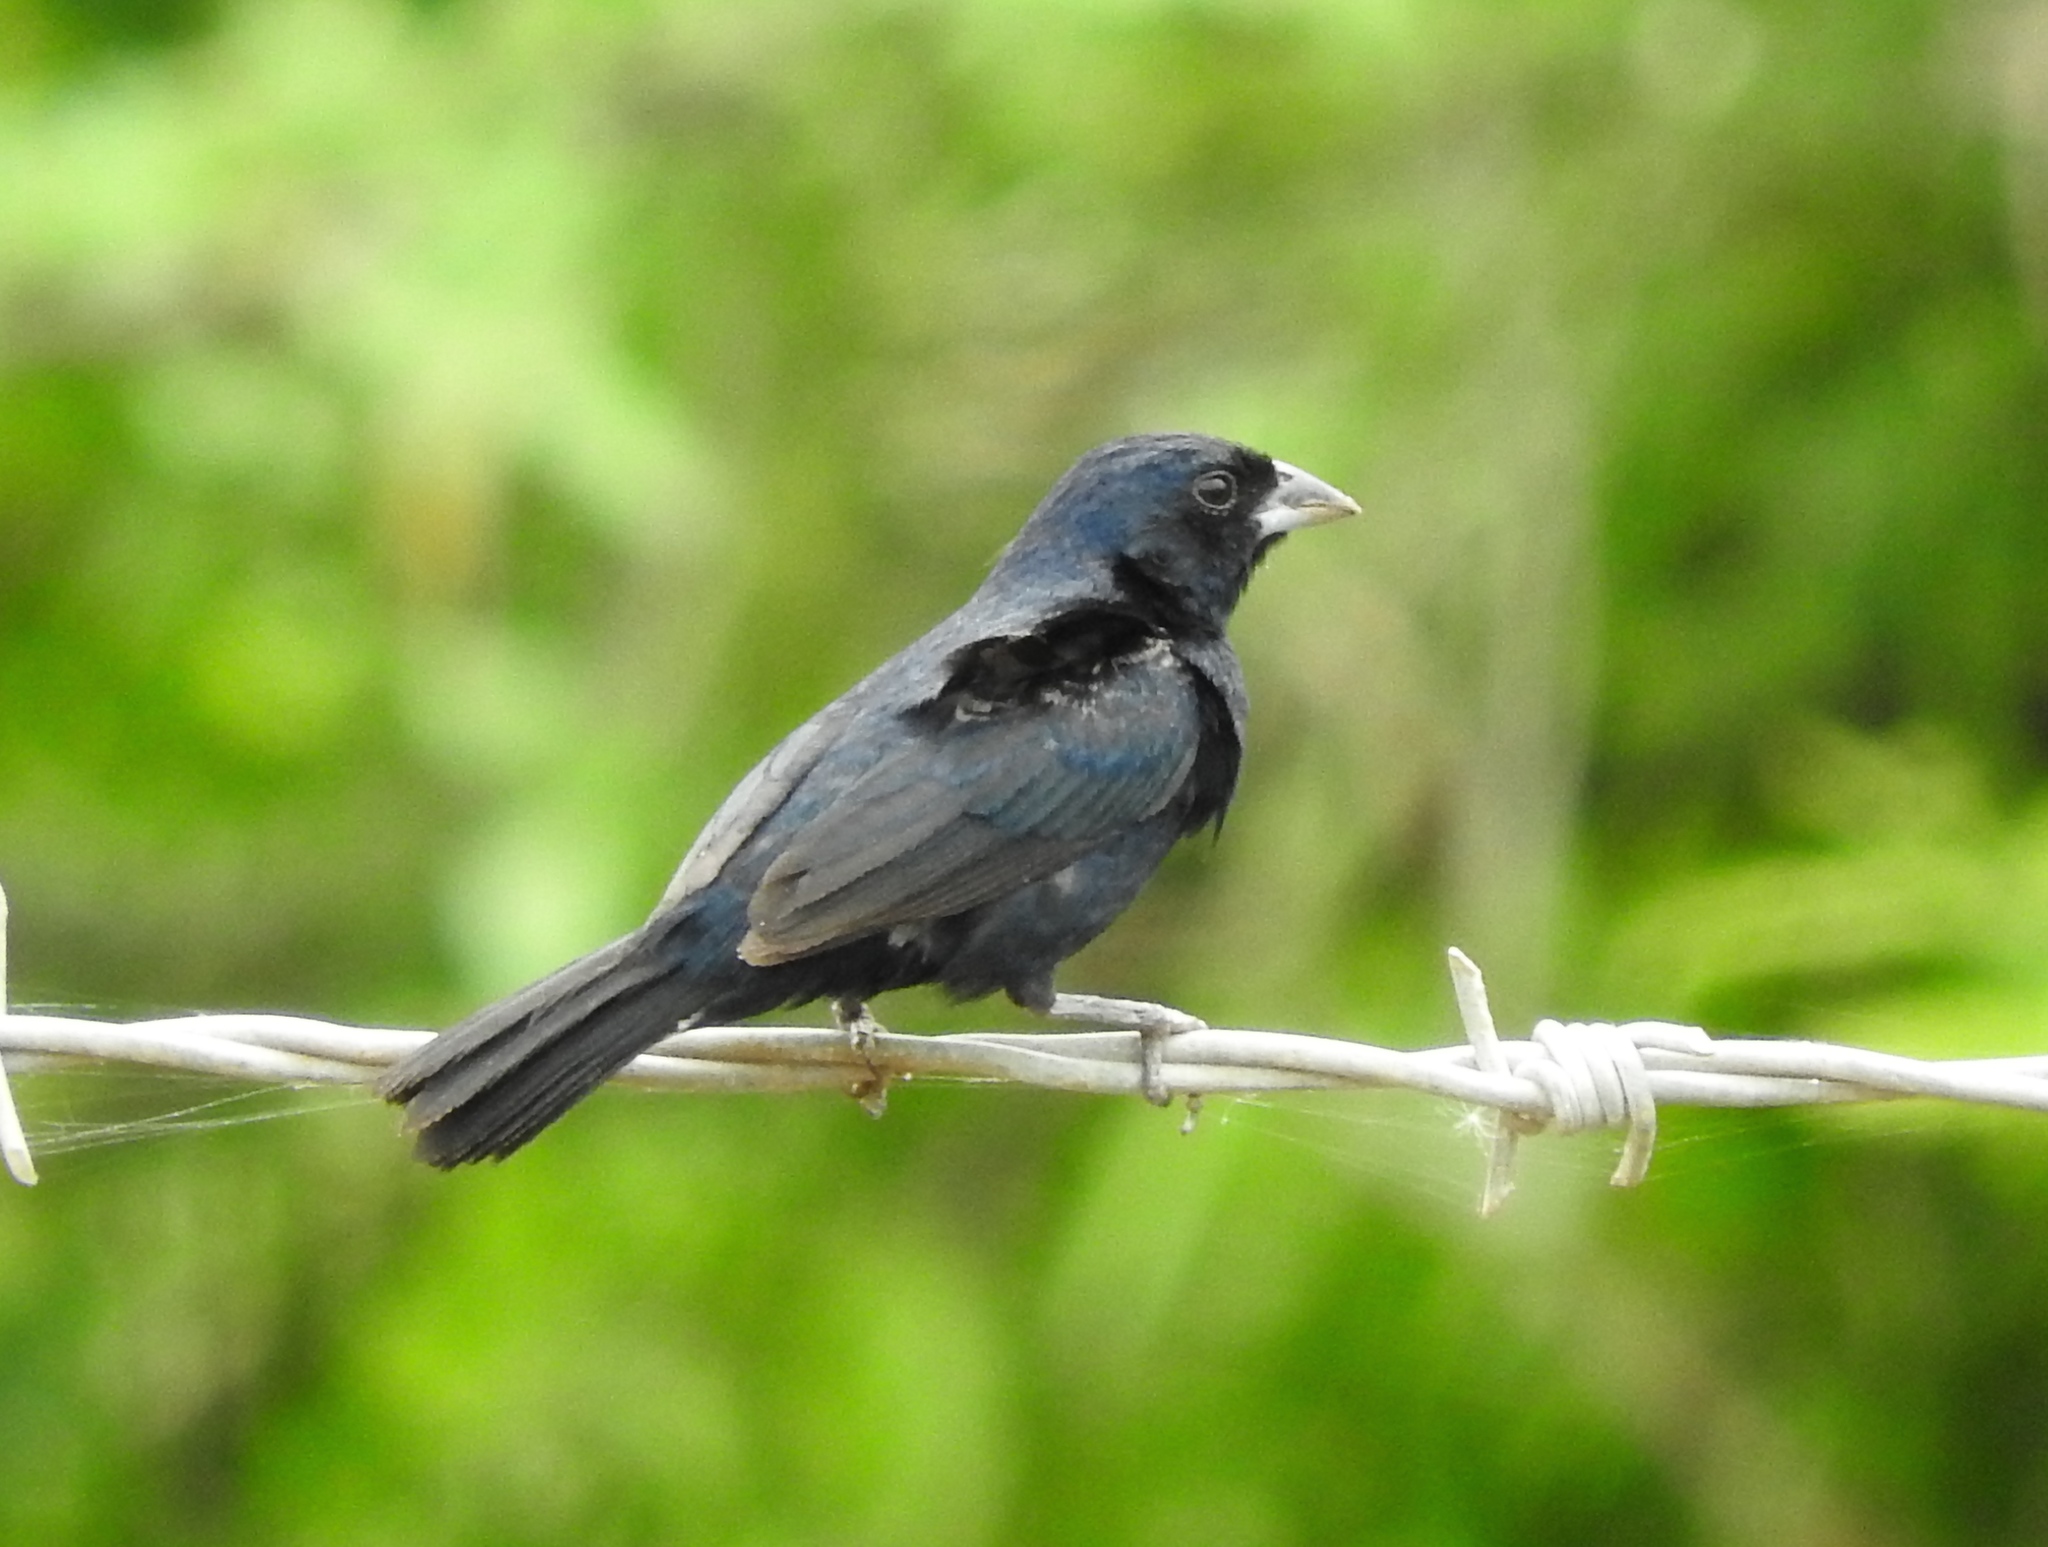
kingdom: Animalia
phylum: Chordata
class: Aves
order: Passeriformes
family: Thraupidae
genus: Volatinia
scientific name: Volatinia jacarina
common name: Blue-black grassquit
